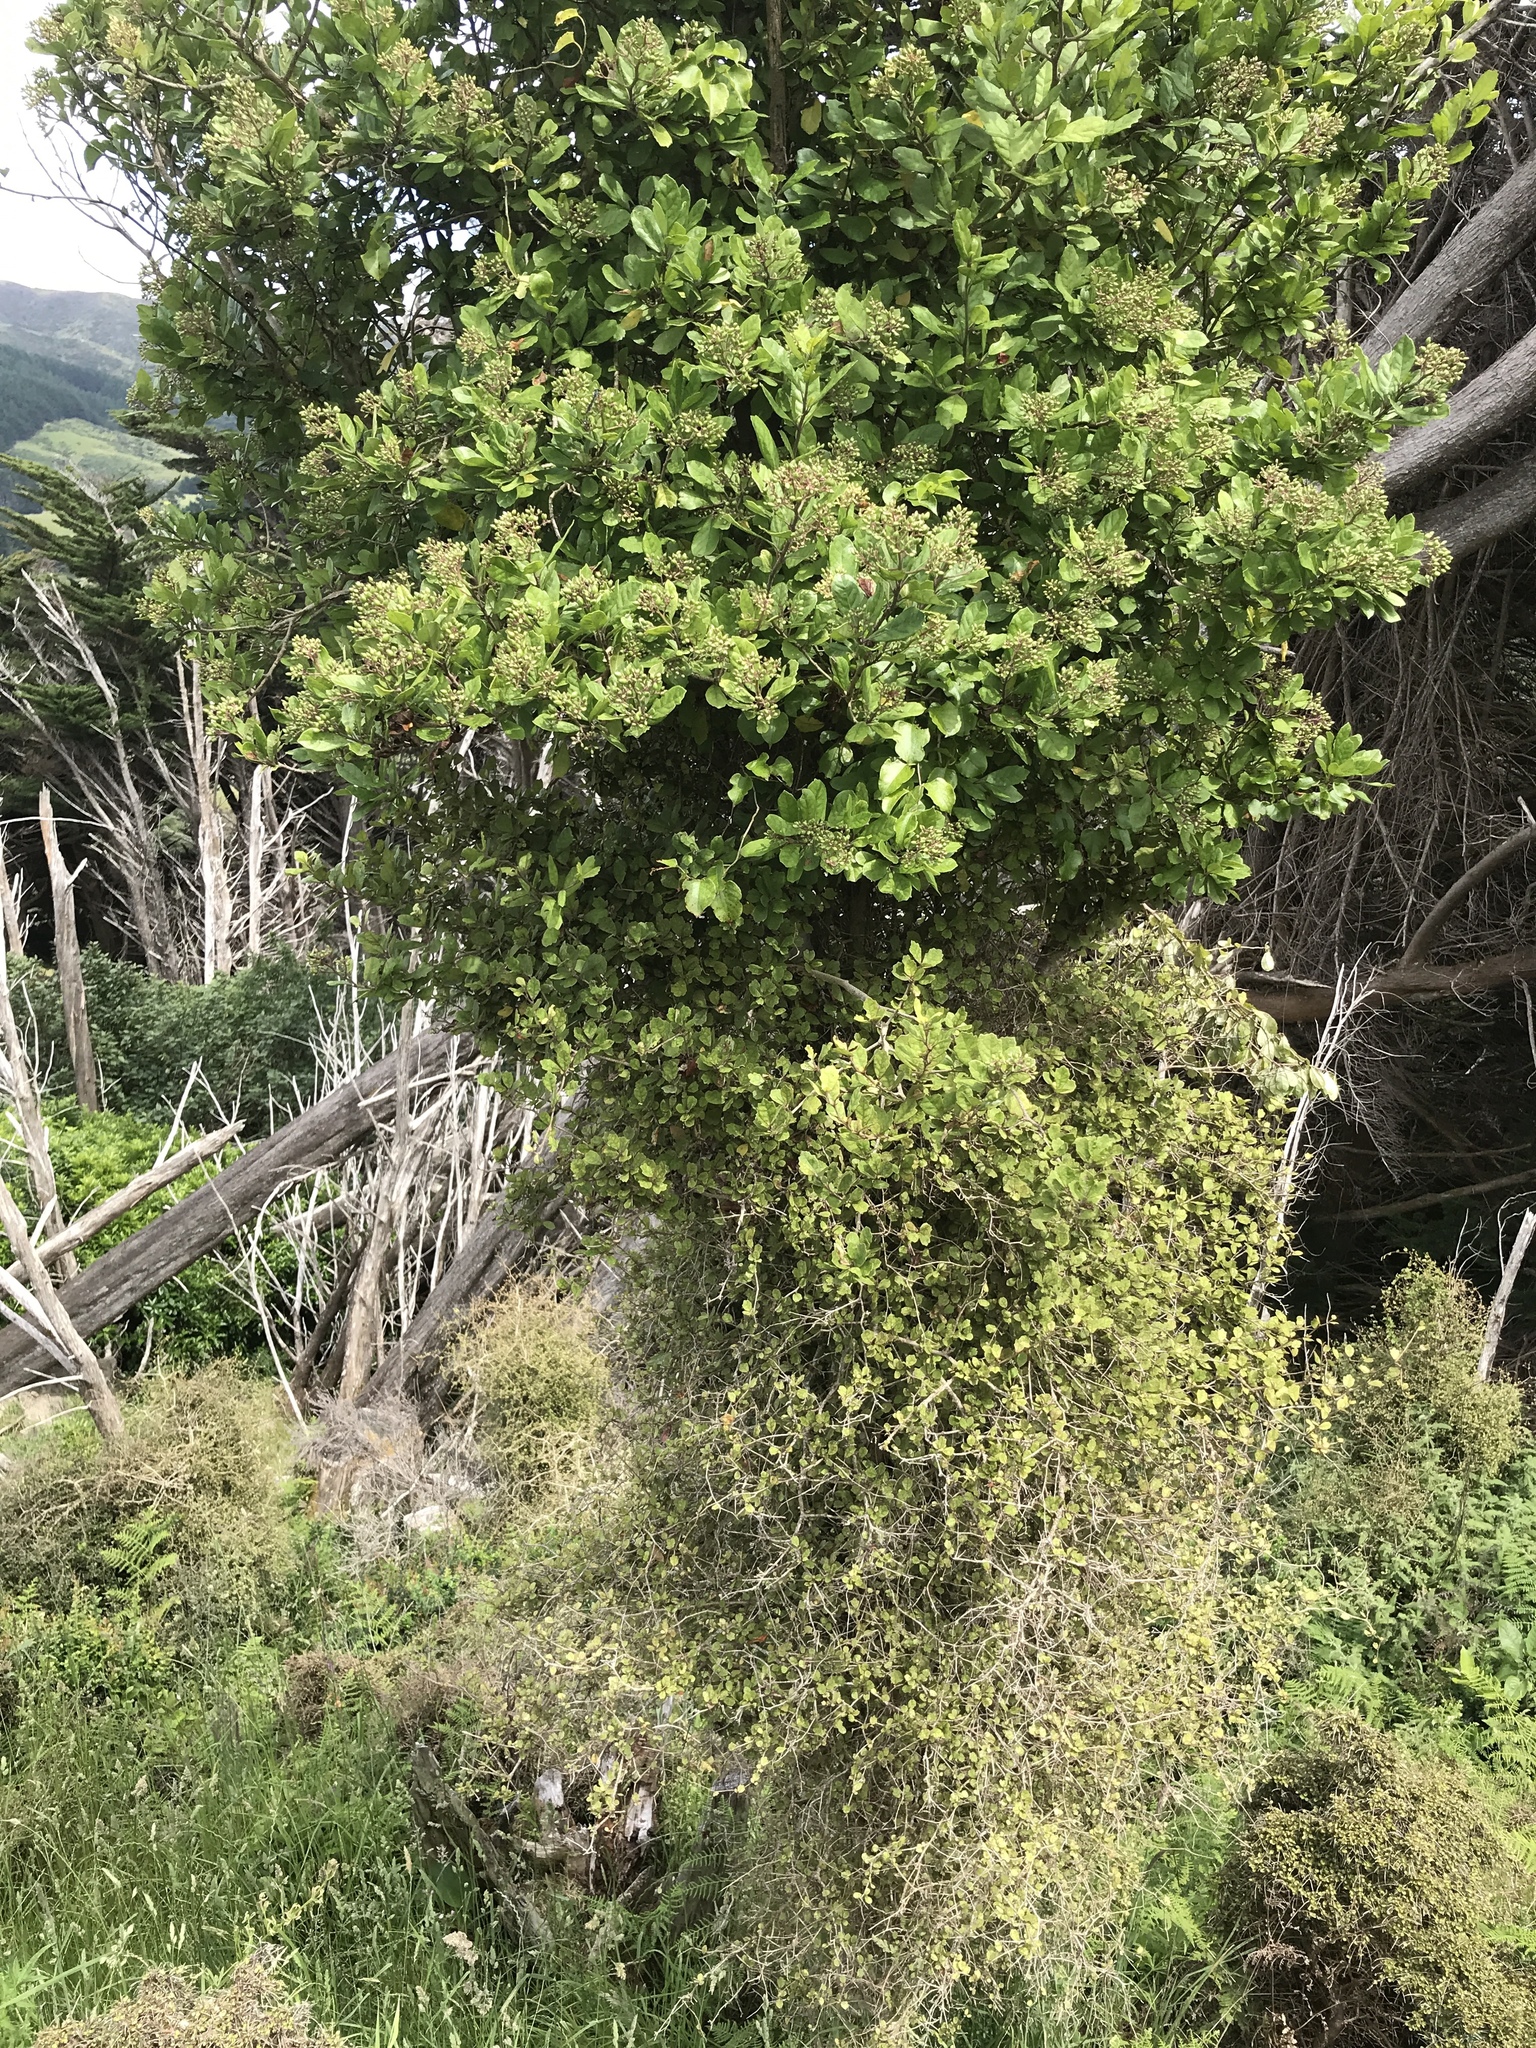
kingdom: Plantae
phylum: Tracheophyta
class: Magnoliopsida
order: Apiales
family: Pennantiaceae
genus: Pennantia
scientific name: Pennantia corymbosa
